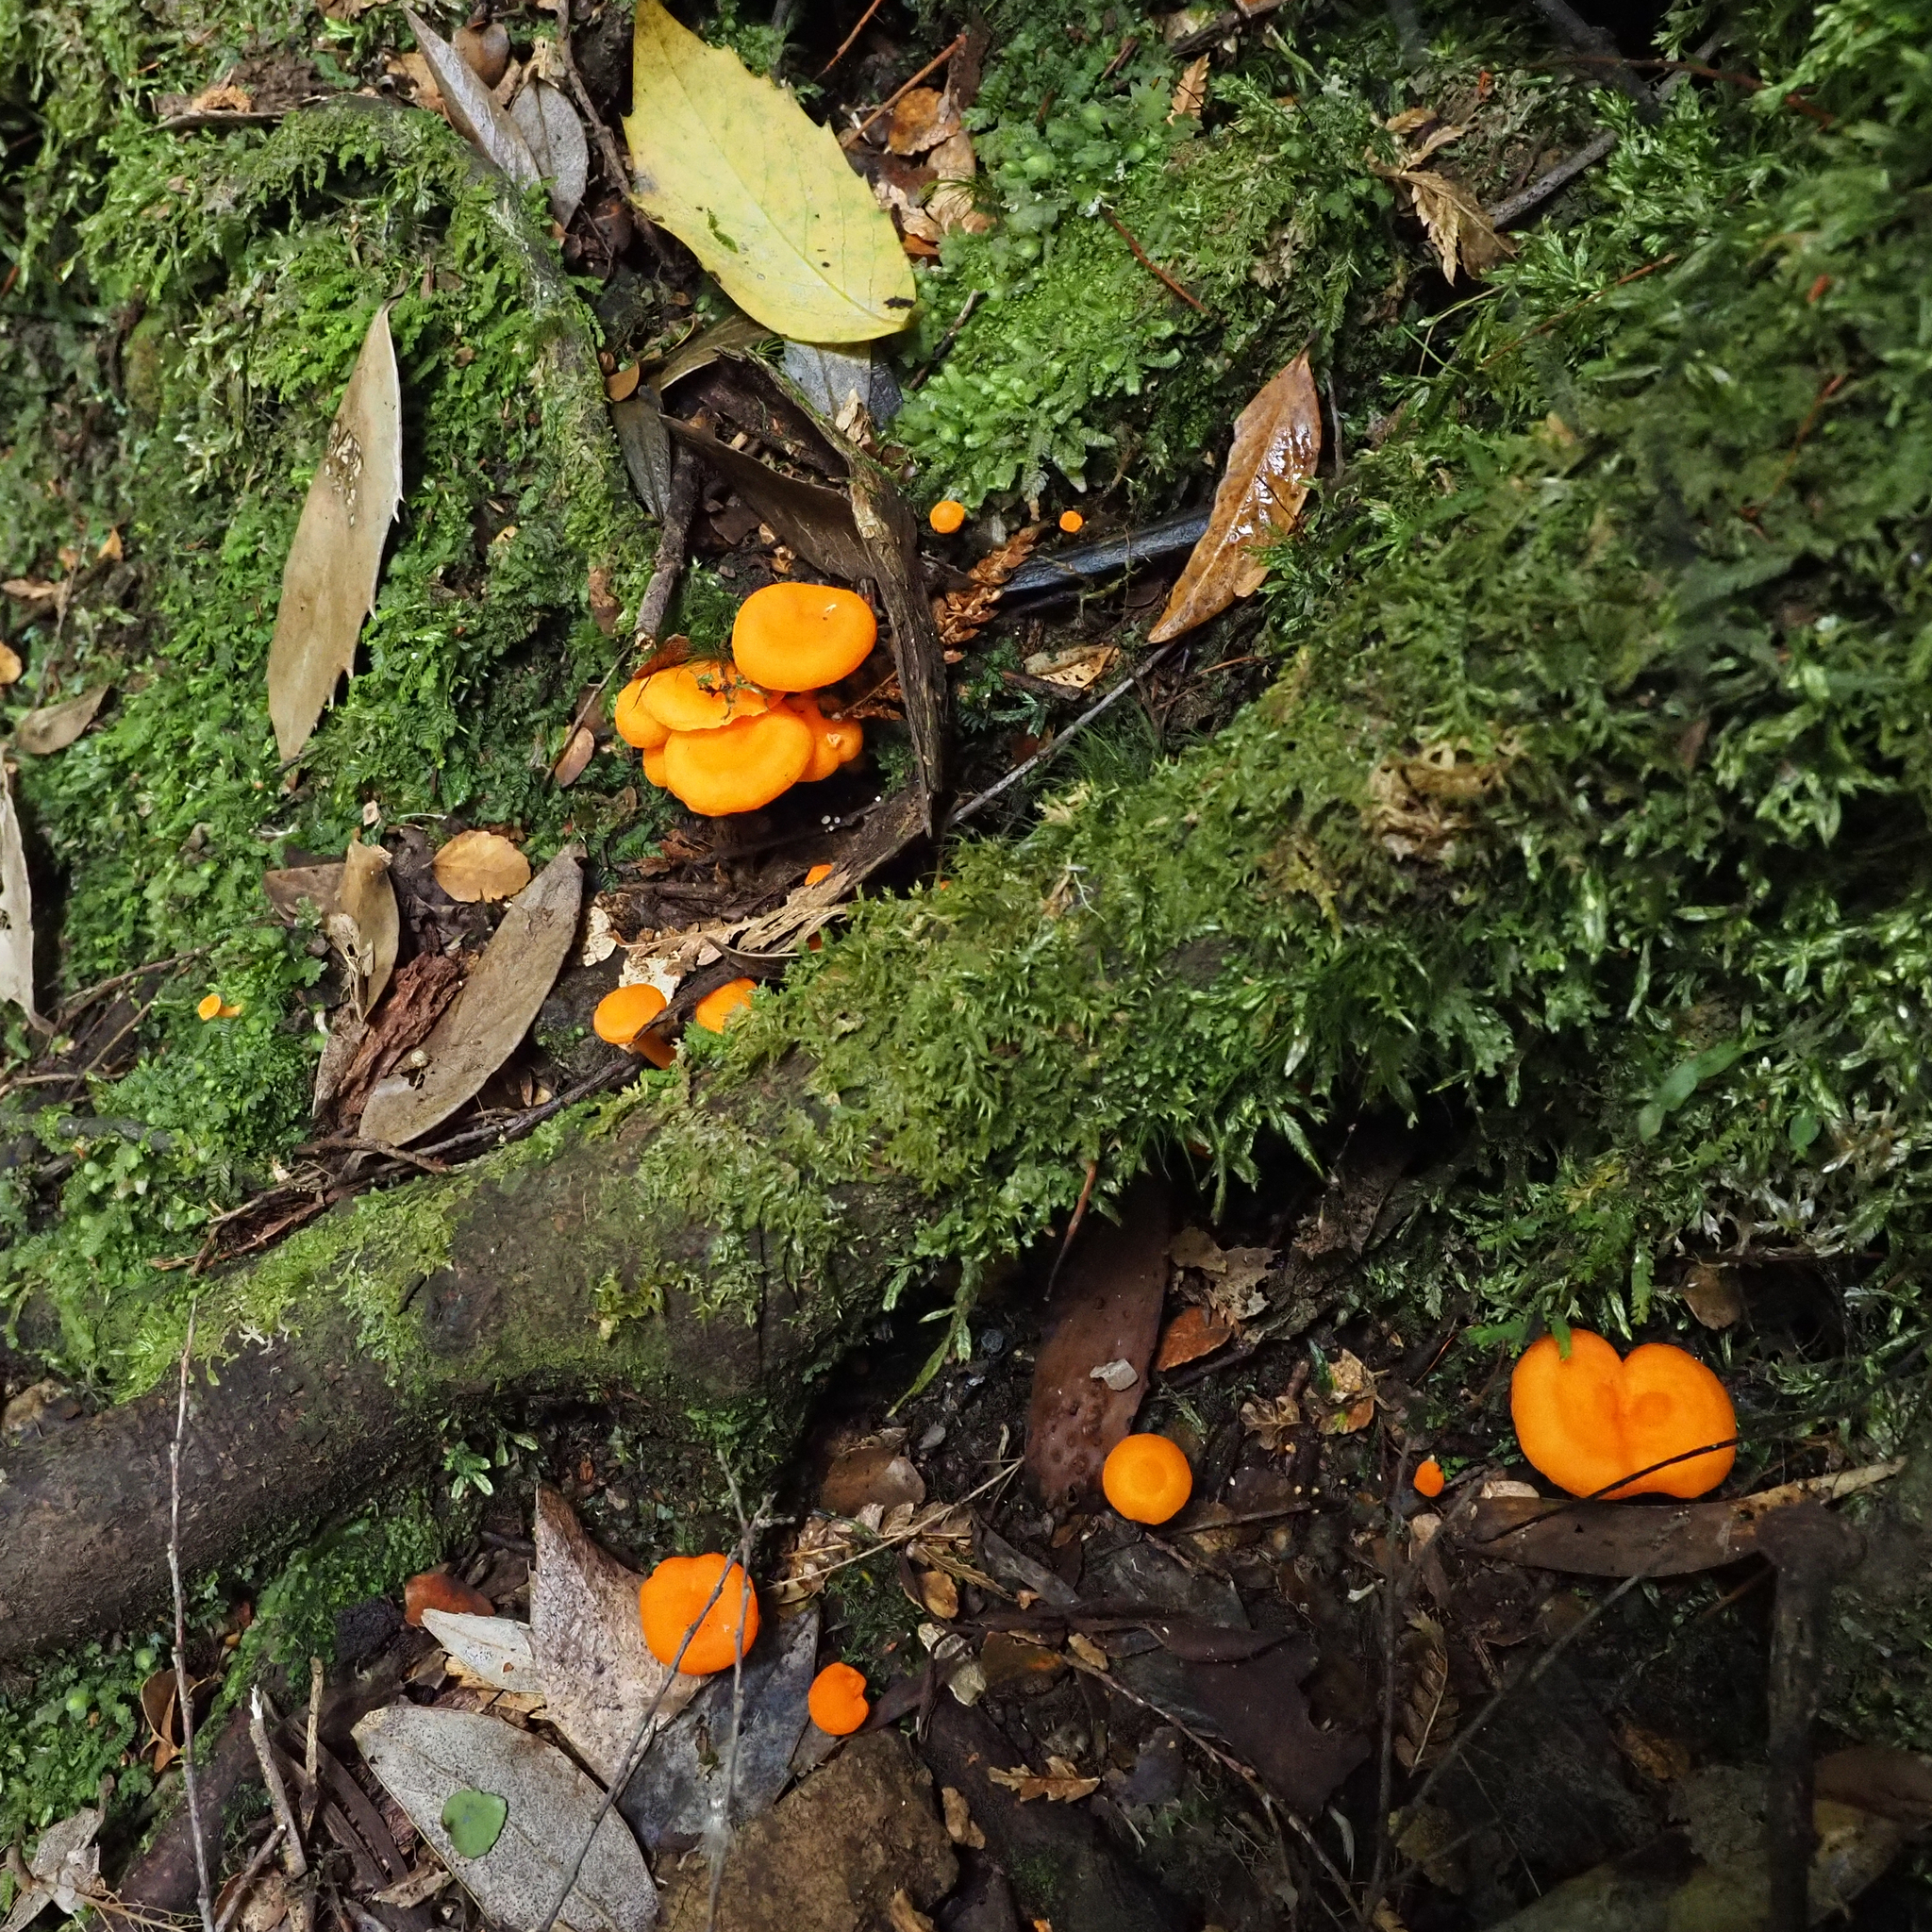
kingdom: Fungi
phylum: Basidiomycota
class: Agaricomycetes
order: Cantharellales
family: Hydnaceae
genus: Cantharellus
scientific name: Cantharellus
